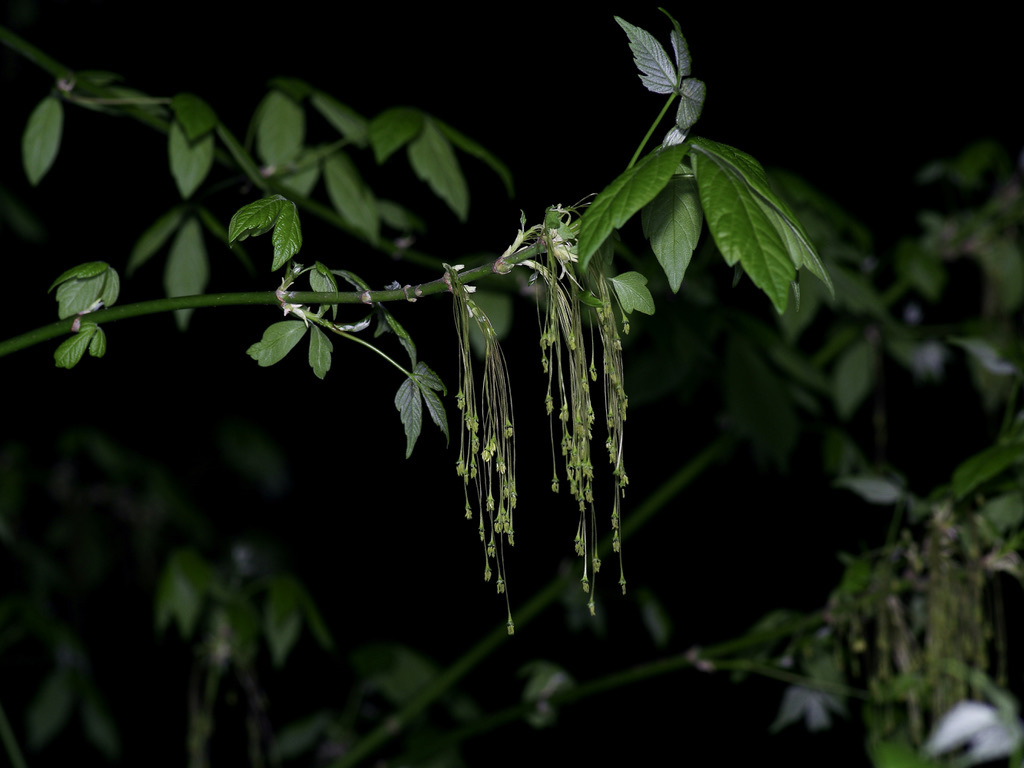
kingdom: Plantae
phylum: Tracheophyta
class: Magnoliopsida
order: Sapindales
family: Sapindaceae
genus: Acer
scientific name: Acer negundo
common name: Ashleaf maple
